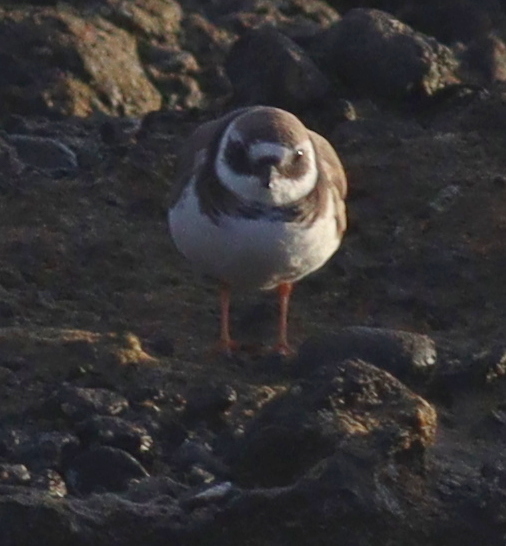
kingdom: Animalia
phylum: Chordata
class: Aves
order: Charadriiformes
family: Charadriidae
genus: Charadrius
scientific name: Charadrius hiaticula
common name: Common ringed plover
